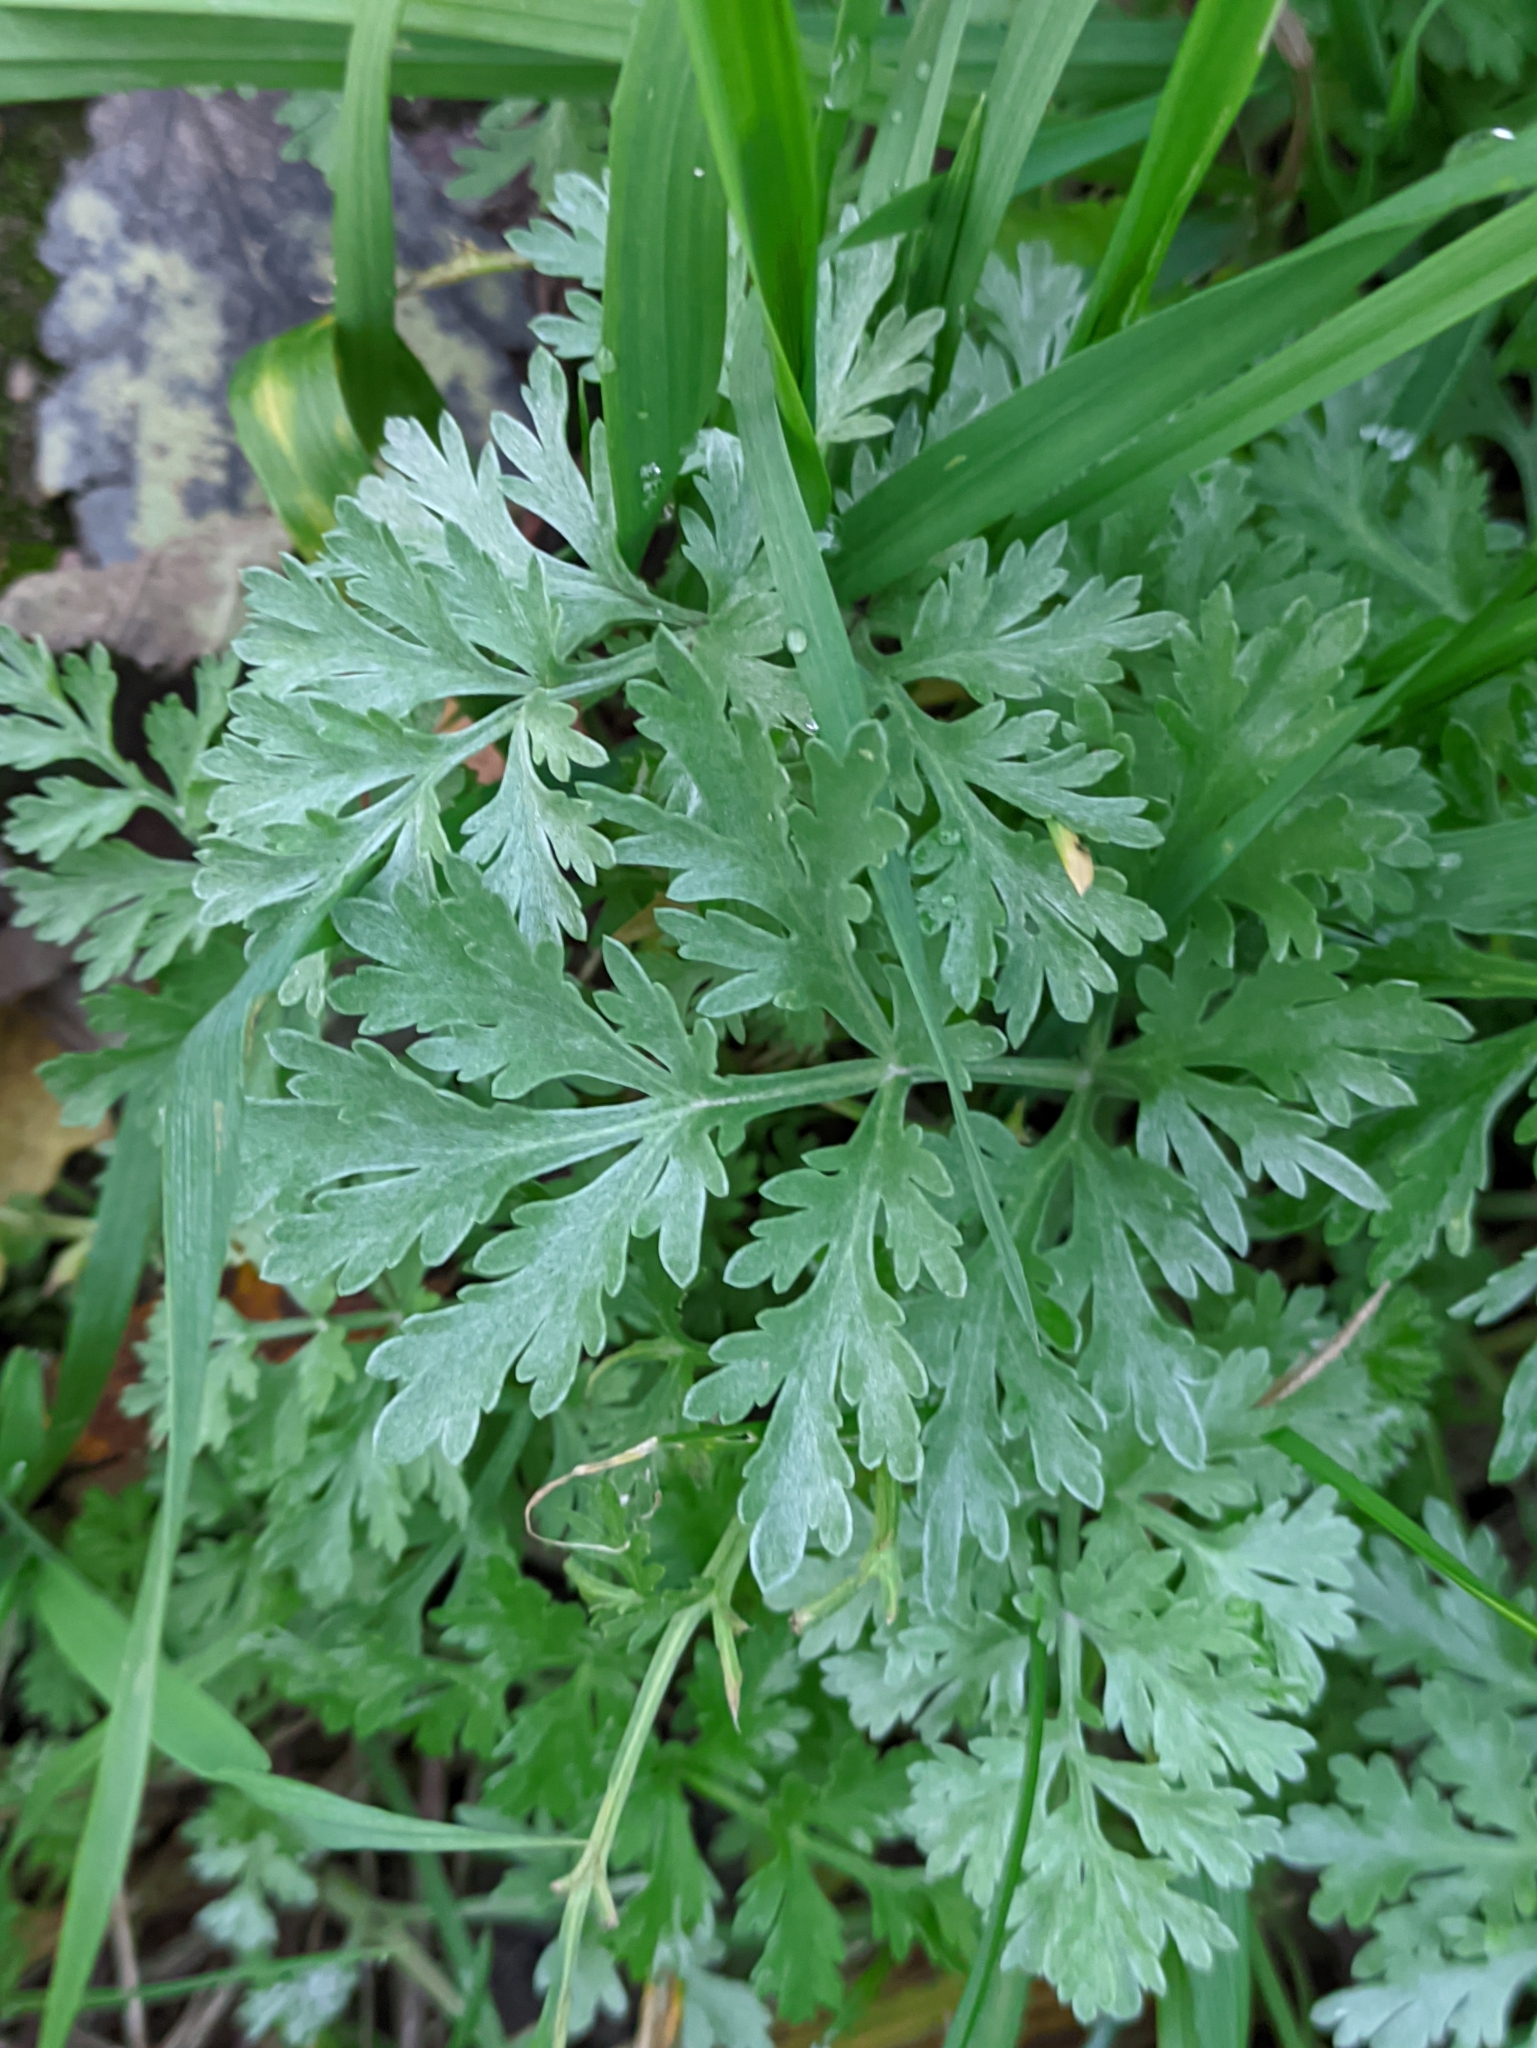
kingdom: Plantae
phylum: Tracheophyta
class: Magnoliopsida
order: Asterales
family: Asteraceae
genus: Artemisia
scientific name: Artemisia absinthium
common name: Wormwood
